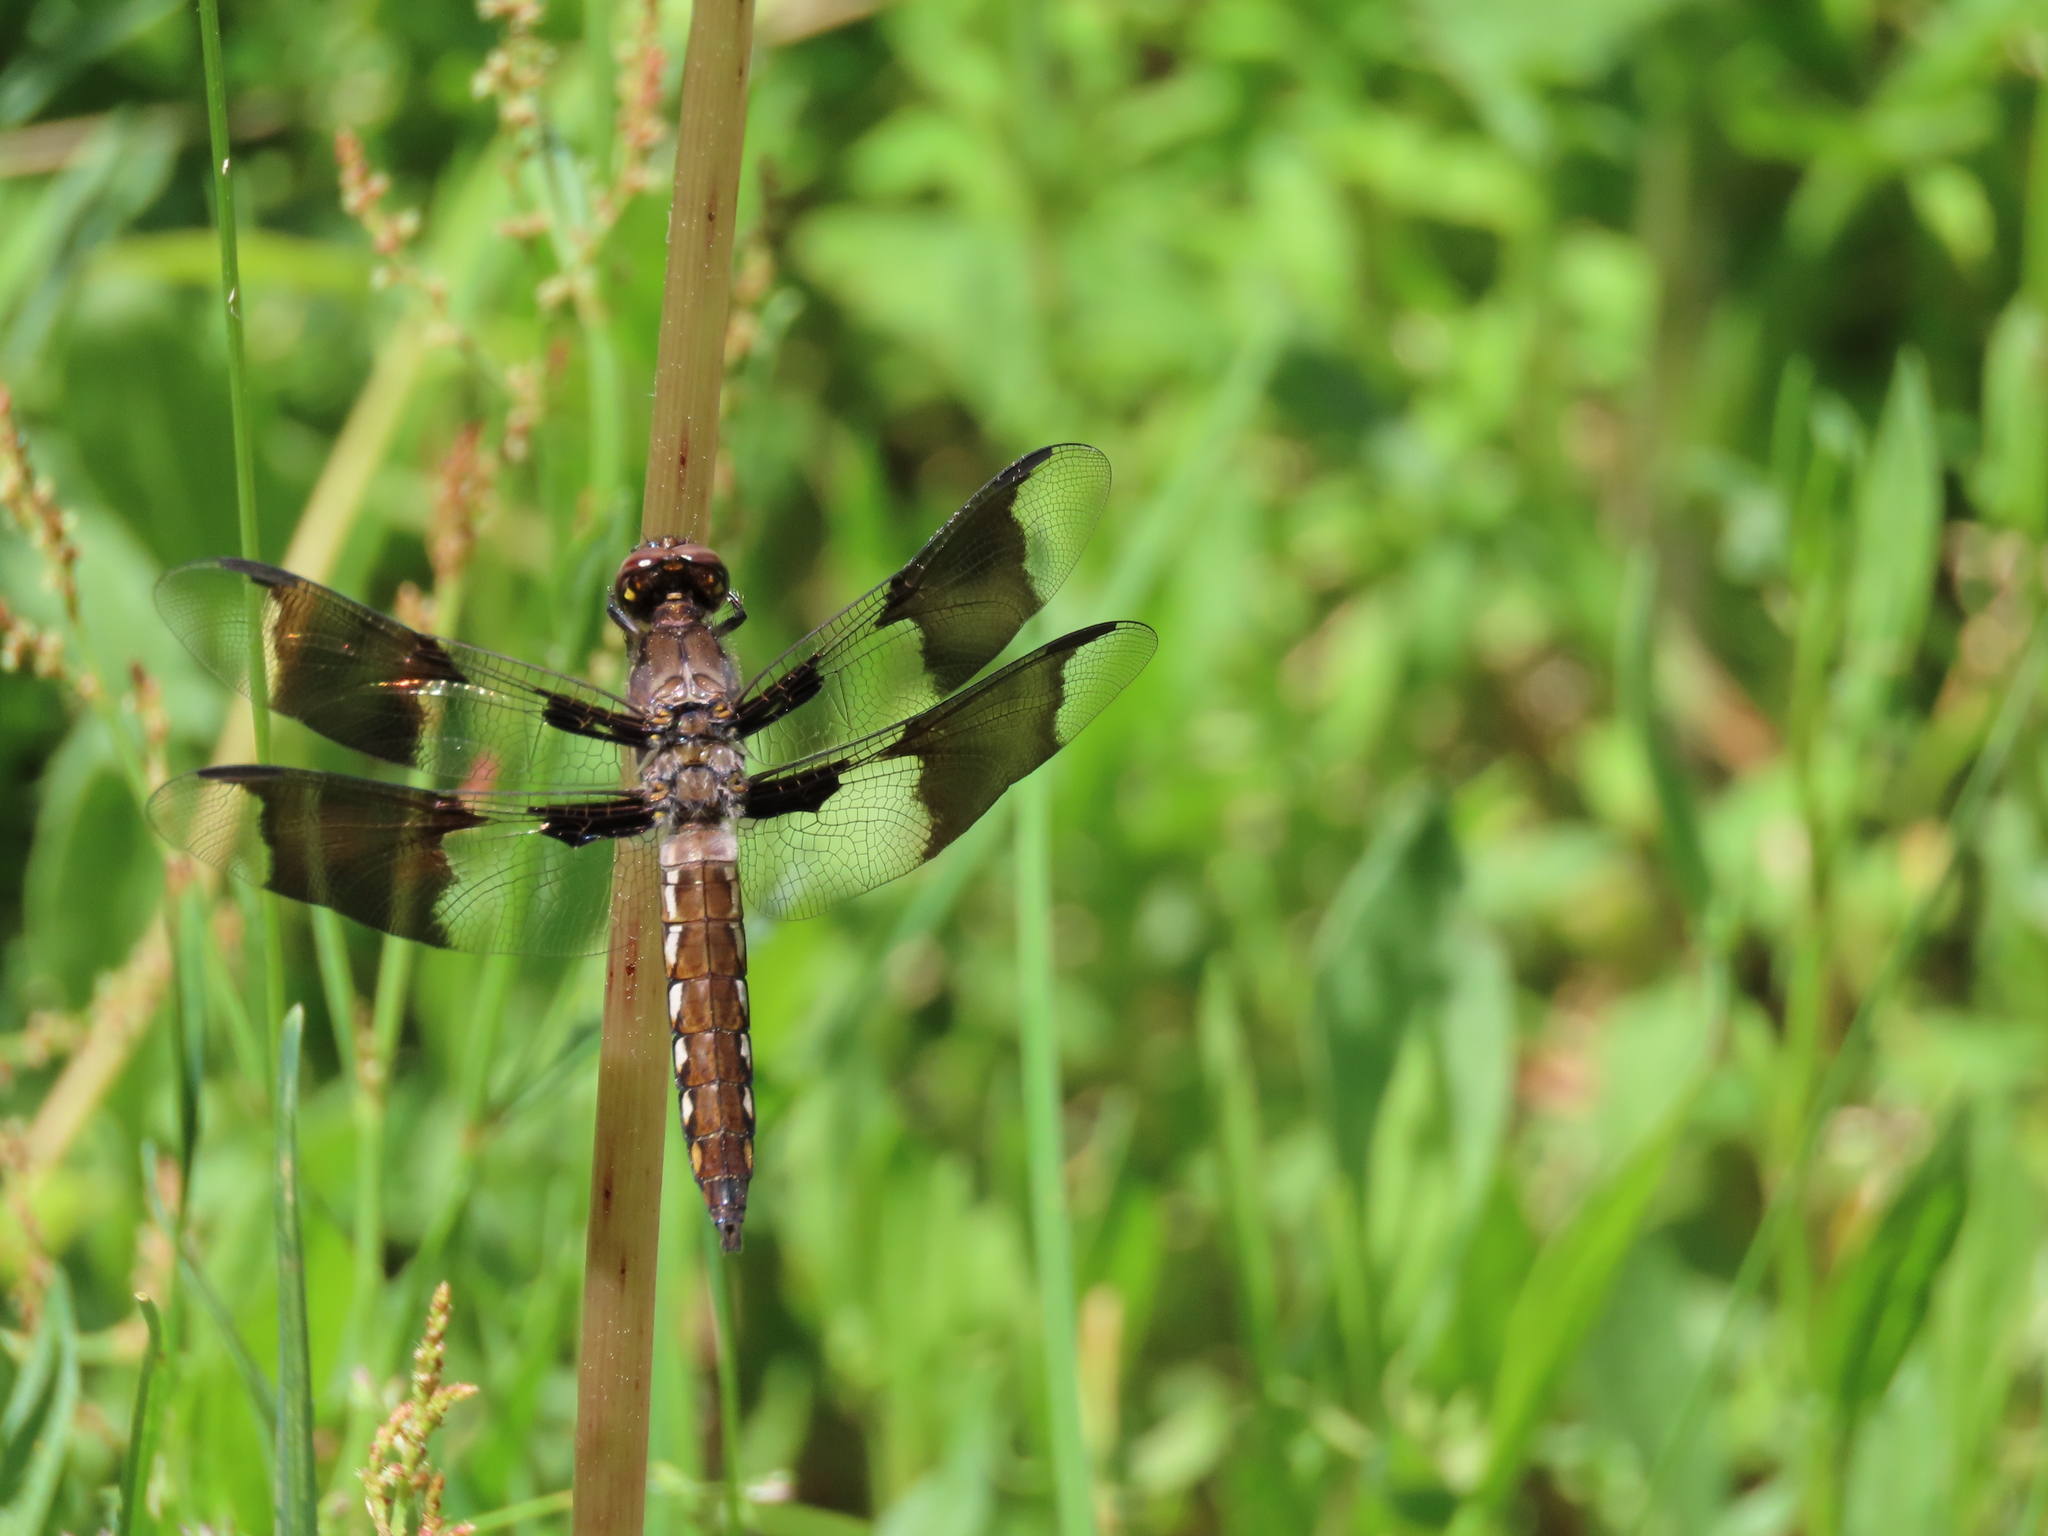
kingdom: Animalia
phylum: Arthropoda
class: Insecta
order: Odonata
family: Libellulidae
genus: Plathemis
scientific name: Plathemis lydia
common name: Common whitetail
